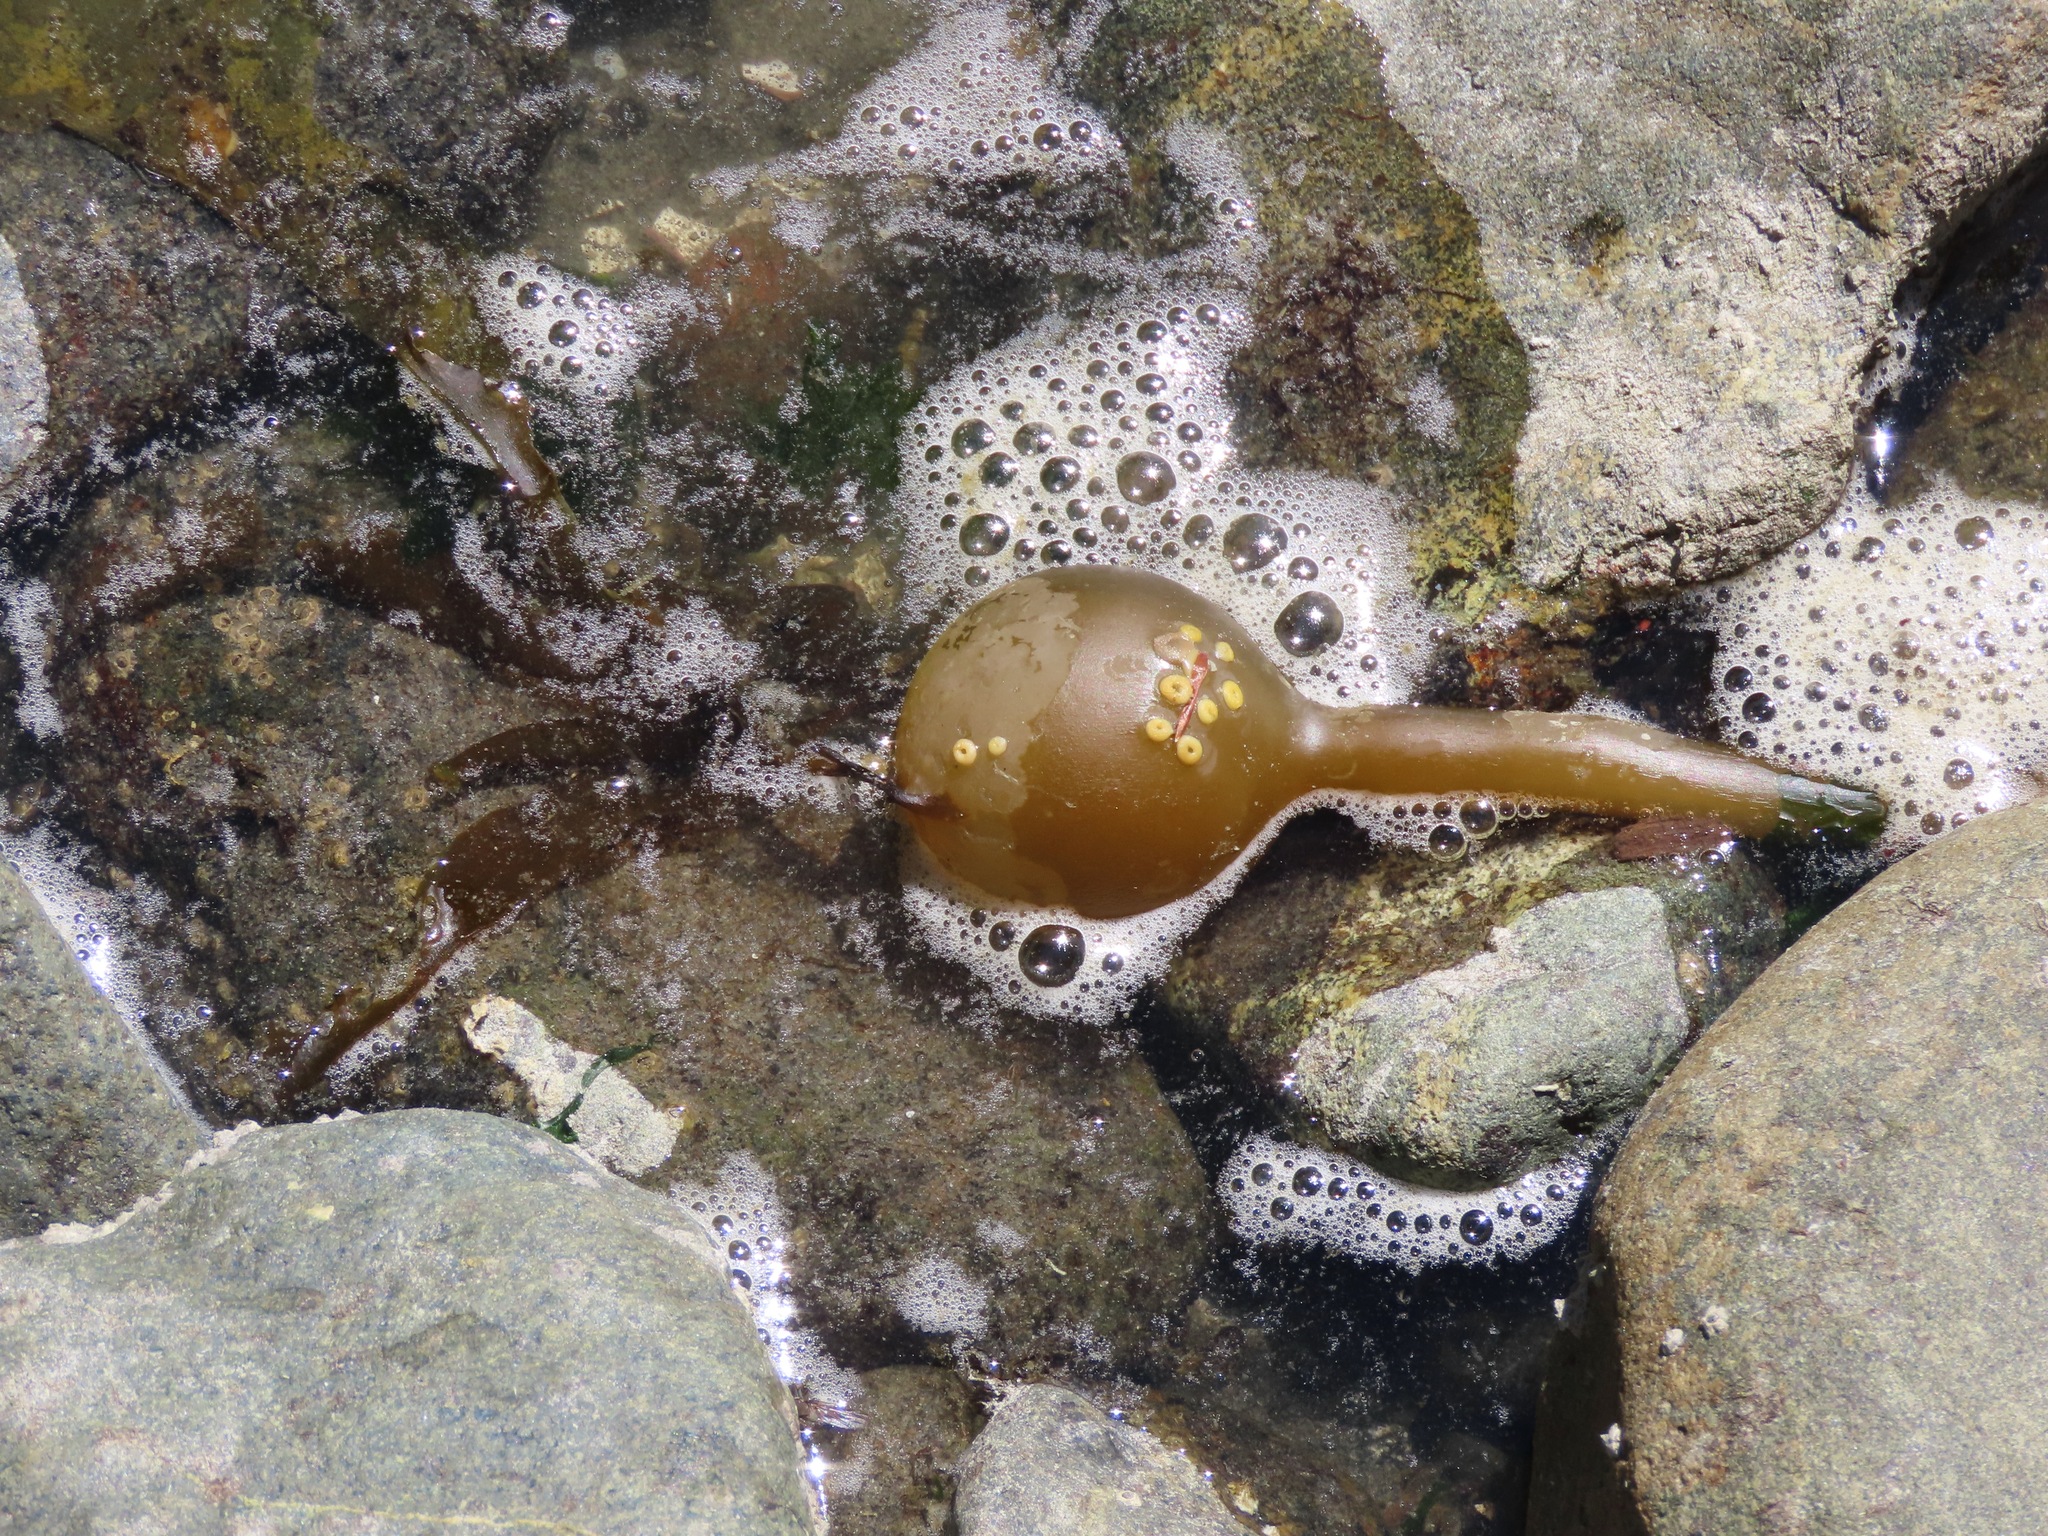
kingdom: Chromista
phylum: Ochrophyta
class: Phaeophyceae
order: Laminariales
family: Laminariaceae
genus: Nereocystis
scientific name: Nereocystis luetkeana
